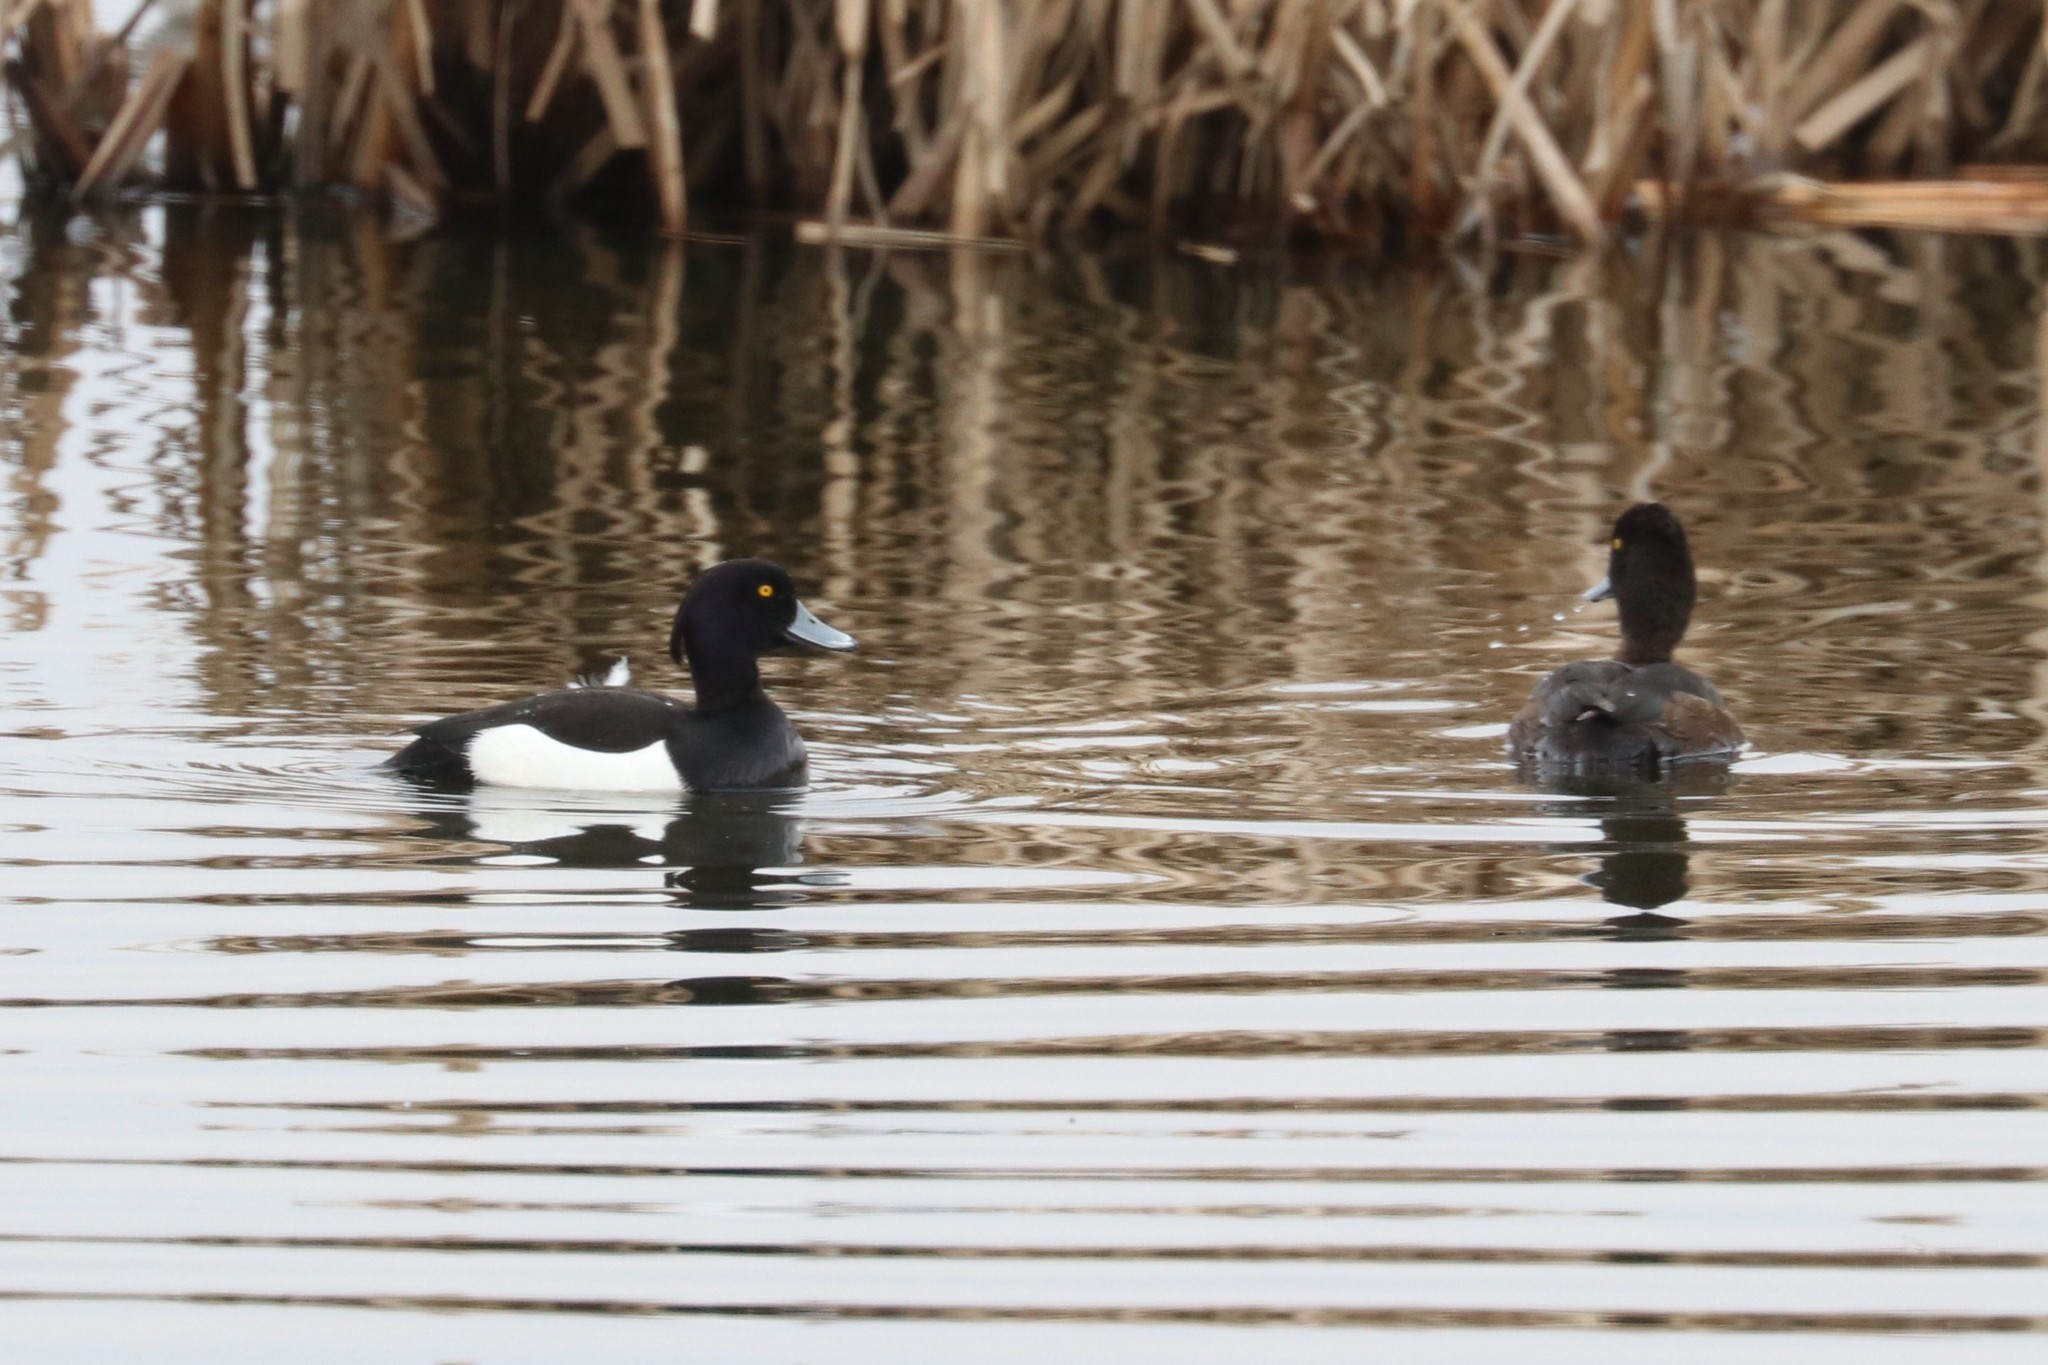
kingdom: Animalia
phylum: Chordata
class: Aves
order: Anseriformes
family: Anatidae
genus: Aythya
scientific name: Aythya fuligula
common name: Tufted duck
